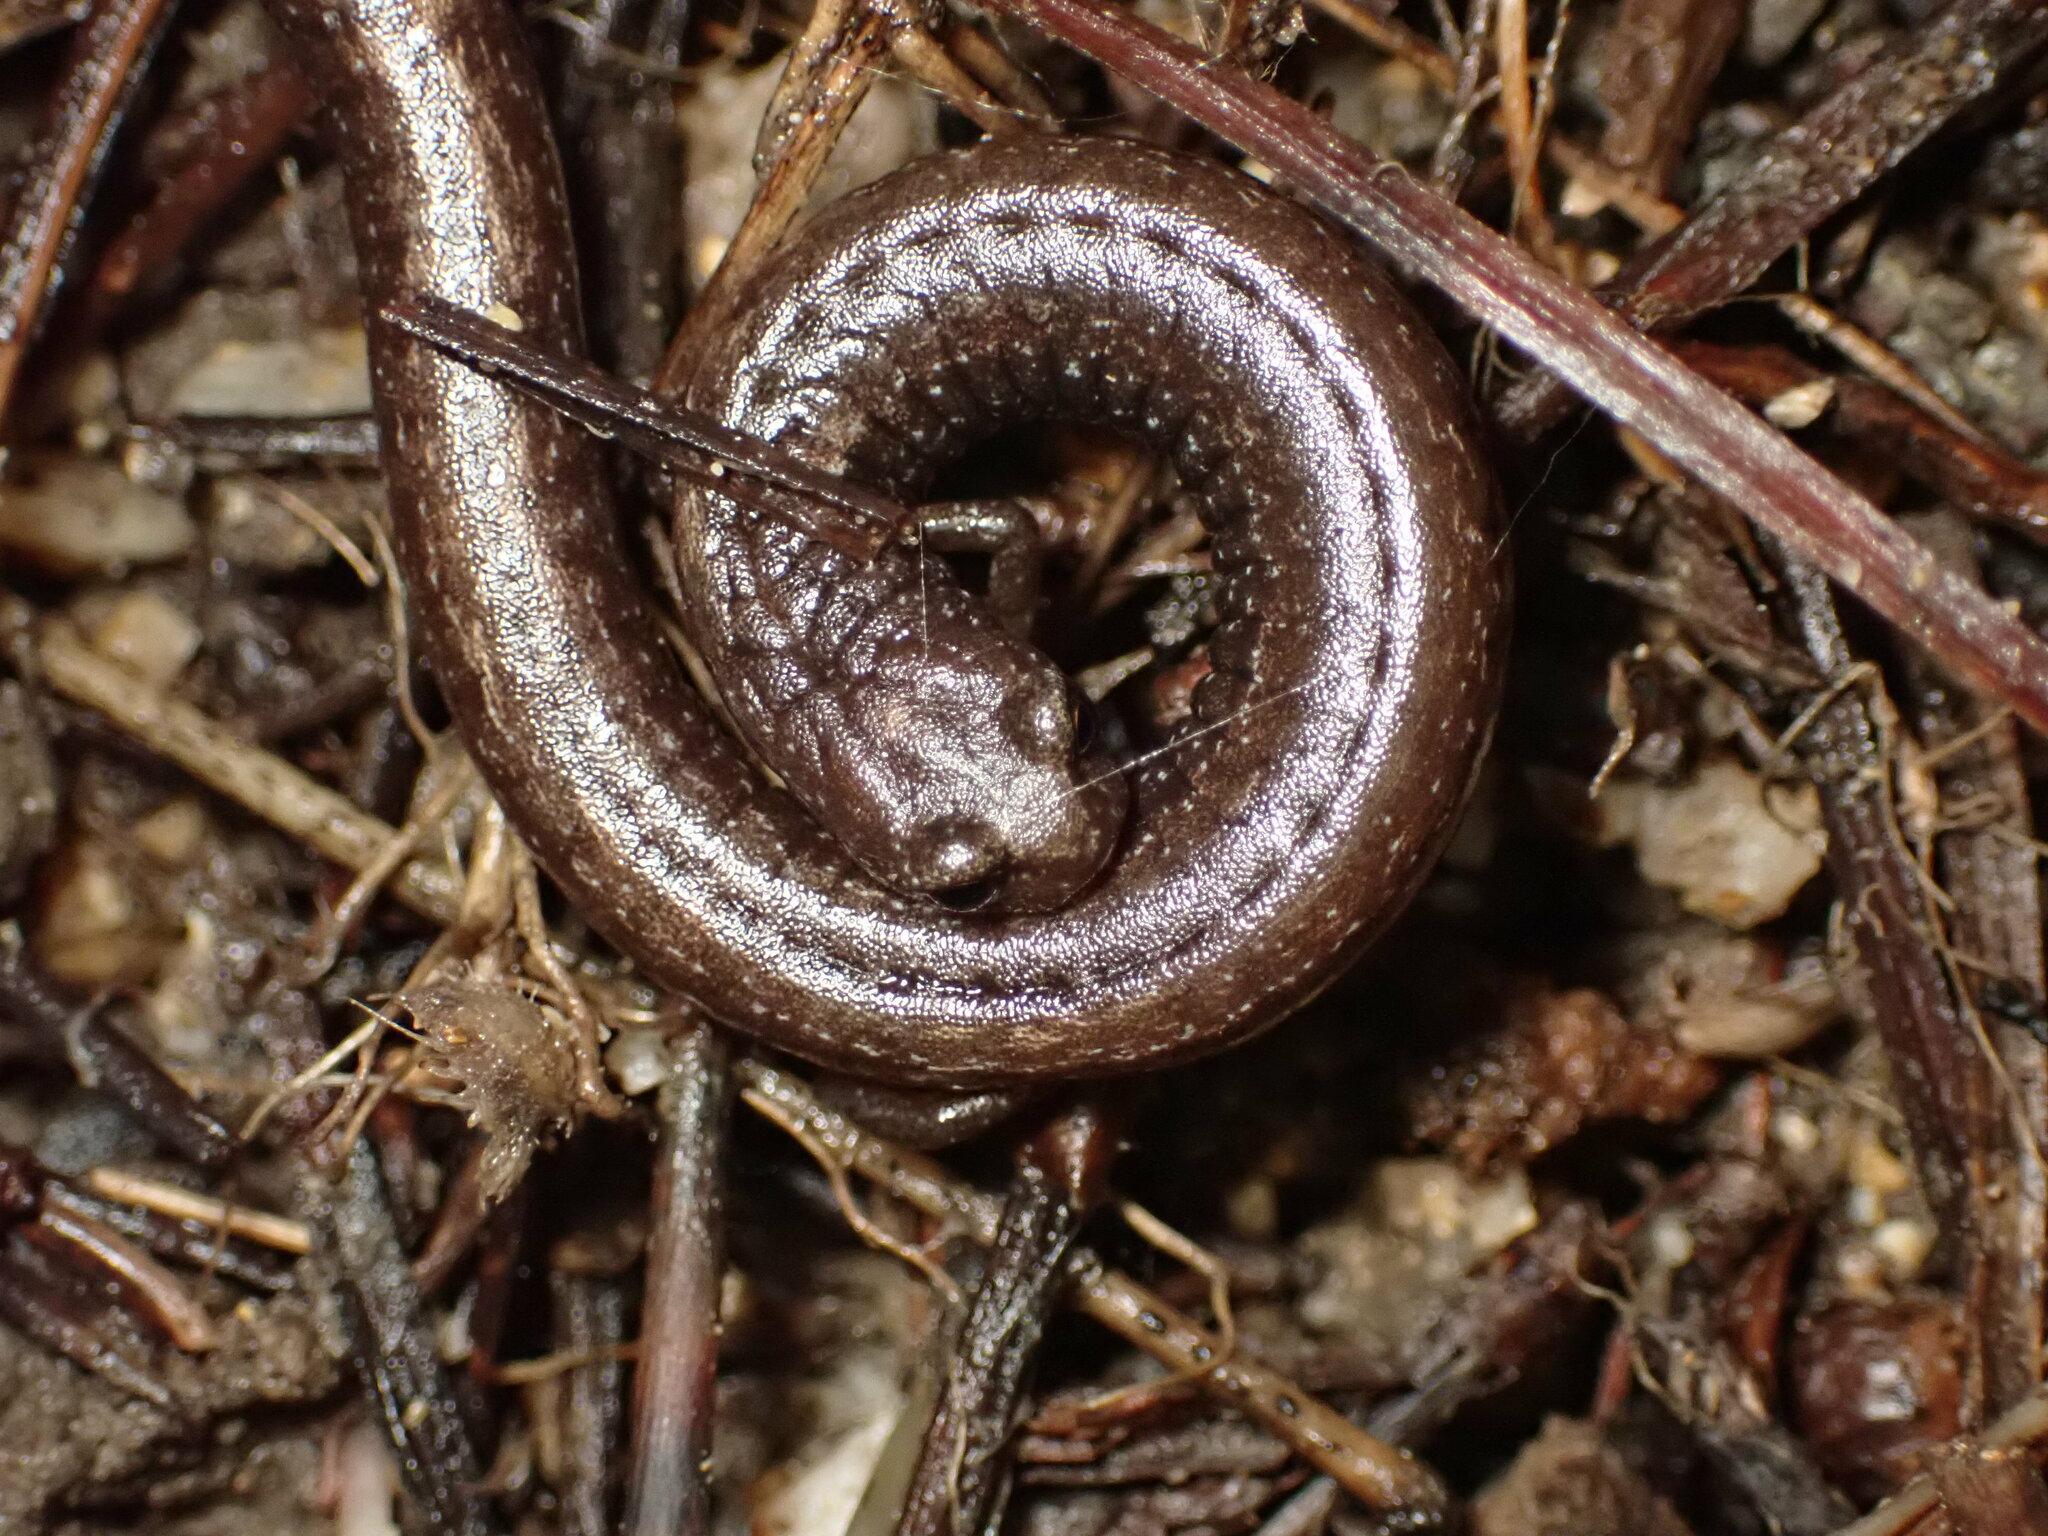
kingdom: Animalia
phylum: Chordata
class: Amphibia
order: Caudata
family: Plethodontidae
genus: Batrachoseps
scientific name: Batrachoseps attenuatus
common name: California slender salamander
